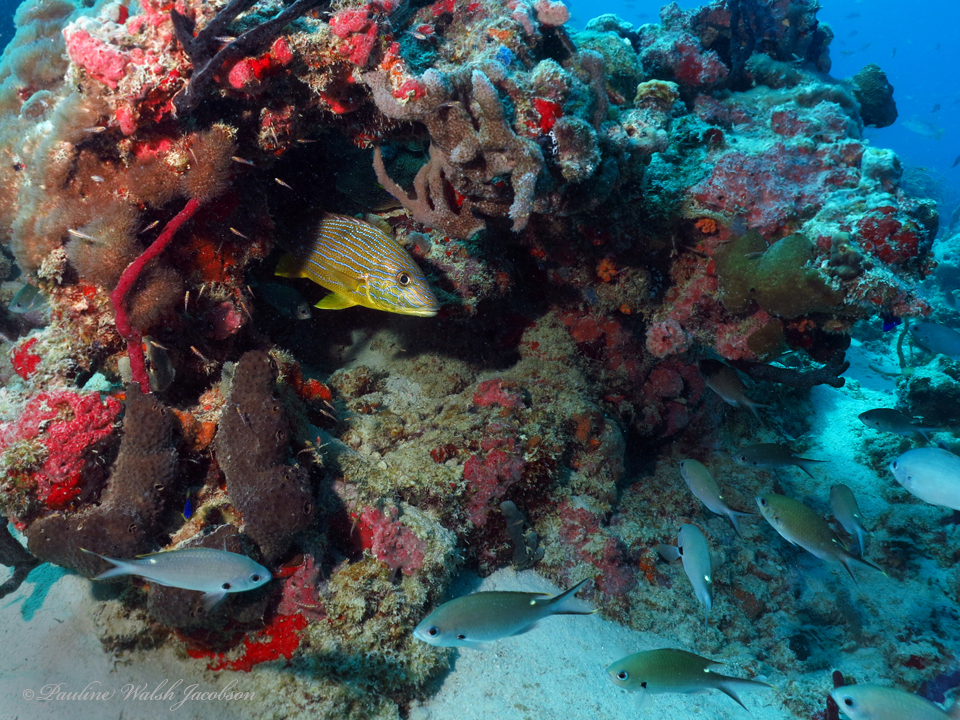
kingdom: Animalia
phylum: Chordata
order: Perciformes
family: Pomacentridae
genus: Chromis
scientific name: Chromis multilineata
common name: Brown chromis
